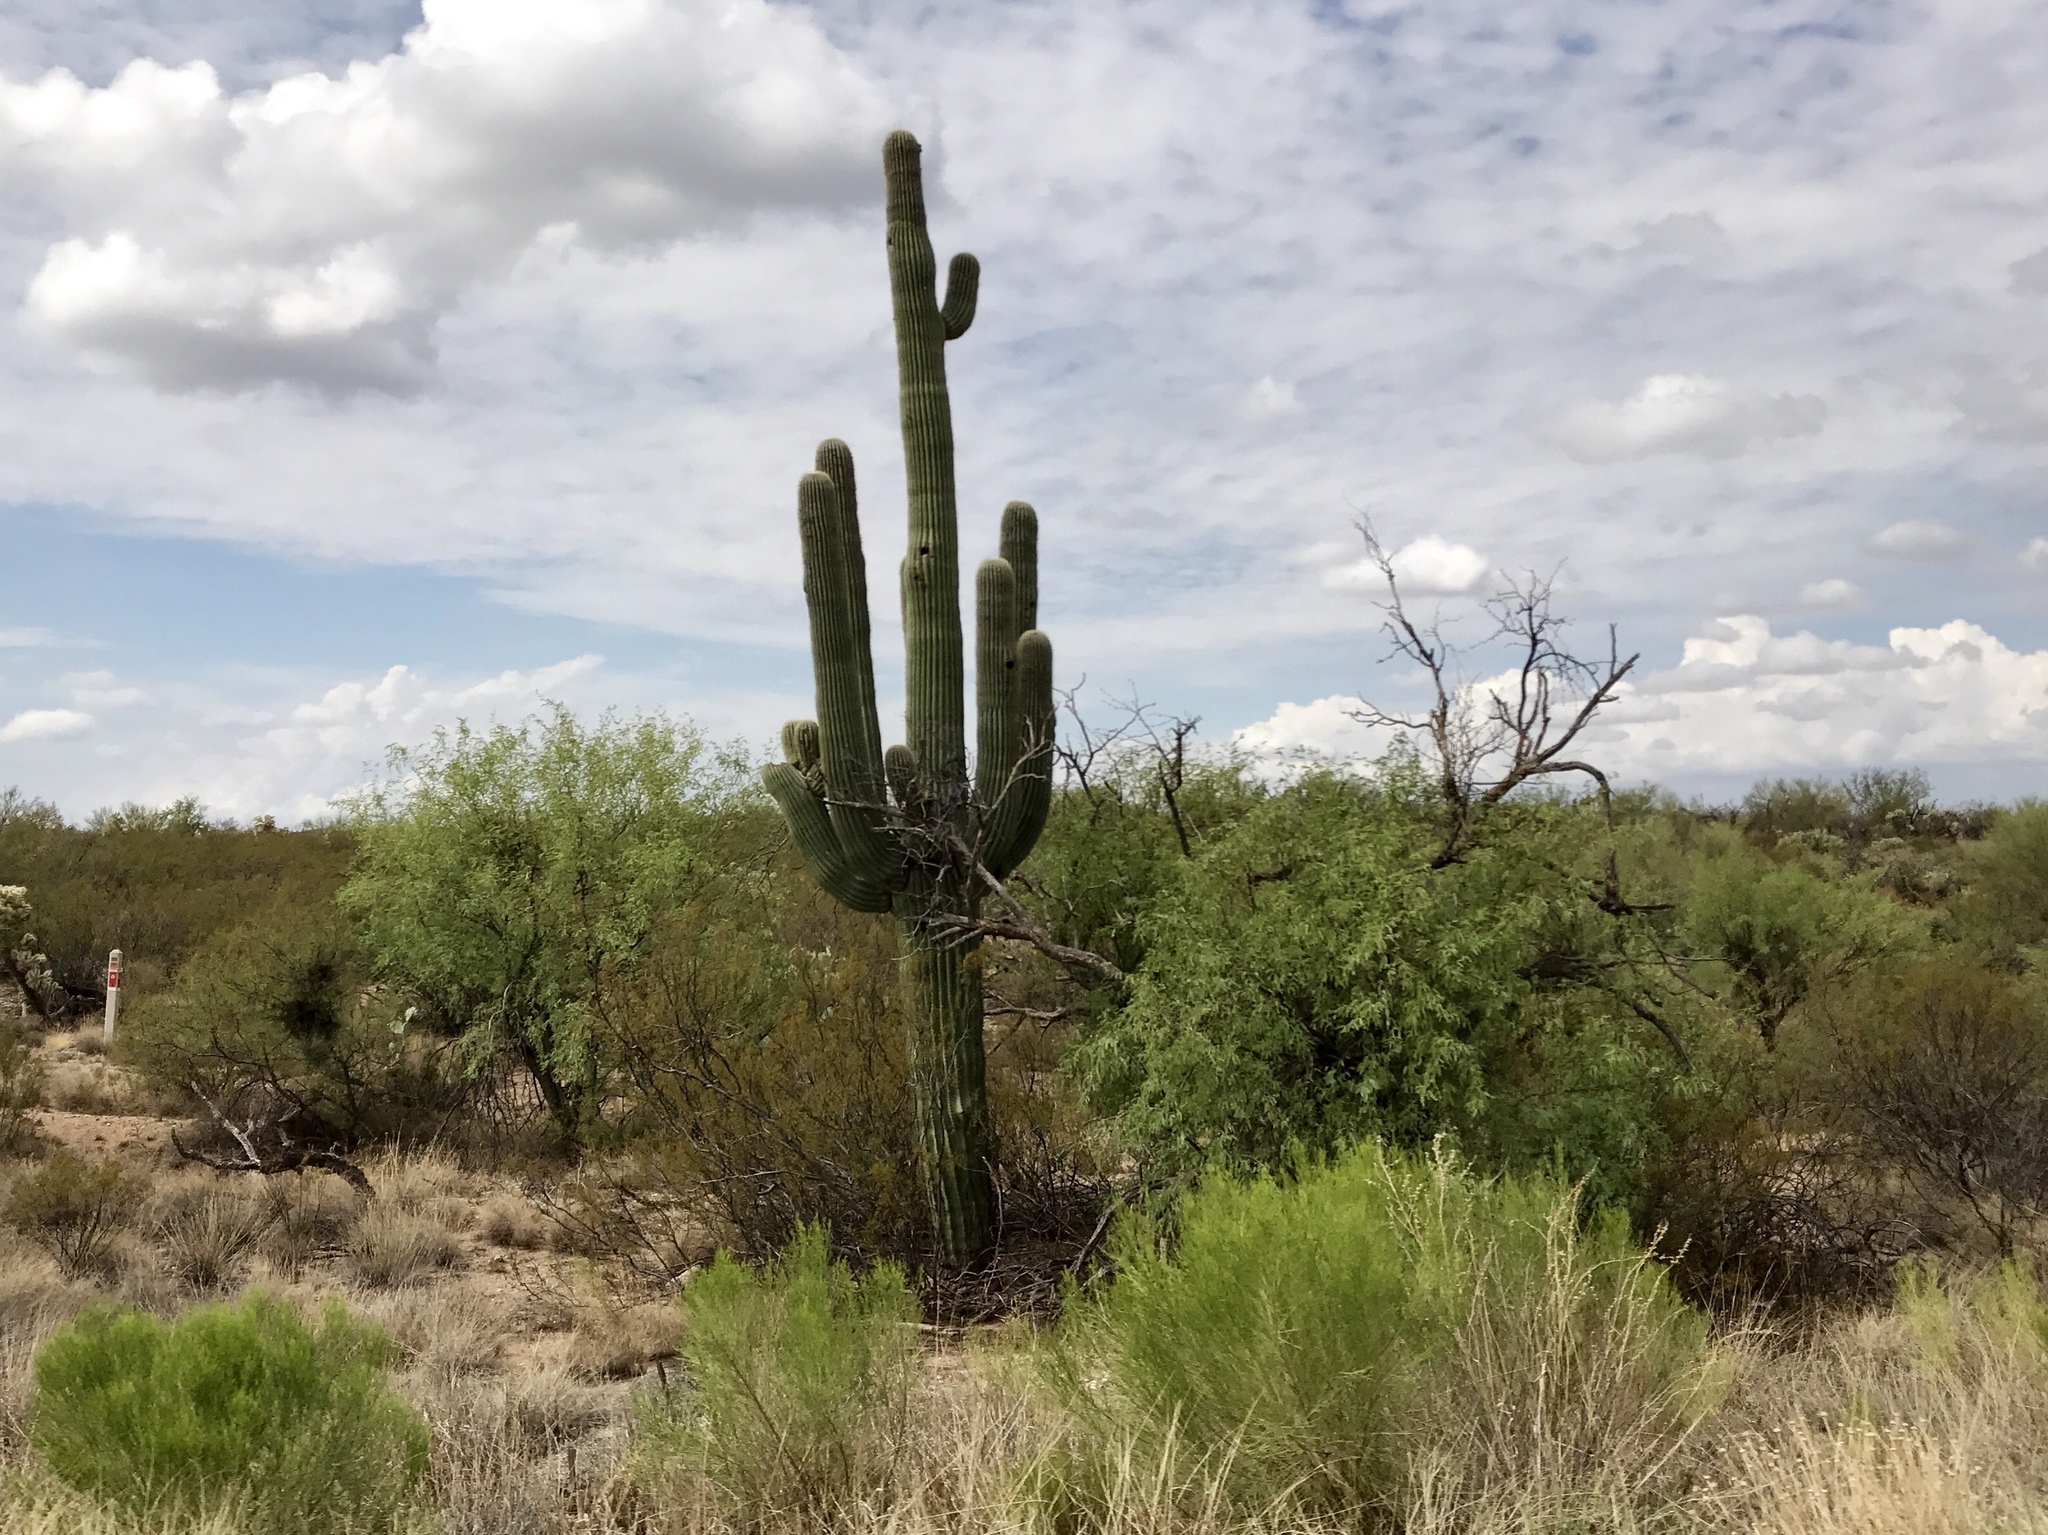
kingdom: Plantae
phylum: Tracheophyta
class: Magnoliopsida
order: Caryophyllales
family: Cactaceae
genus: Carnegiea
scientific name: Carnegiea gigantea
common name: Saguaro
